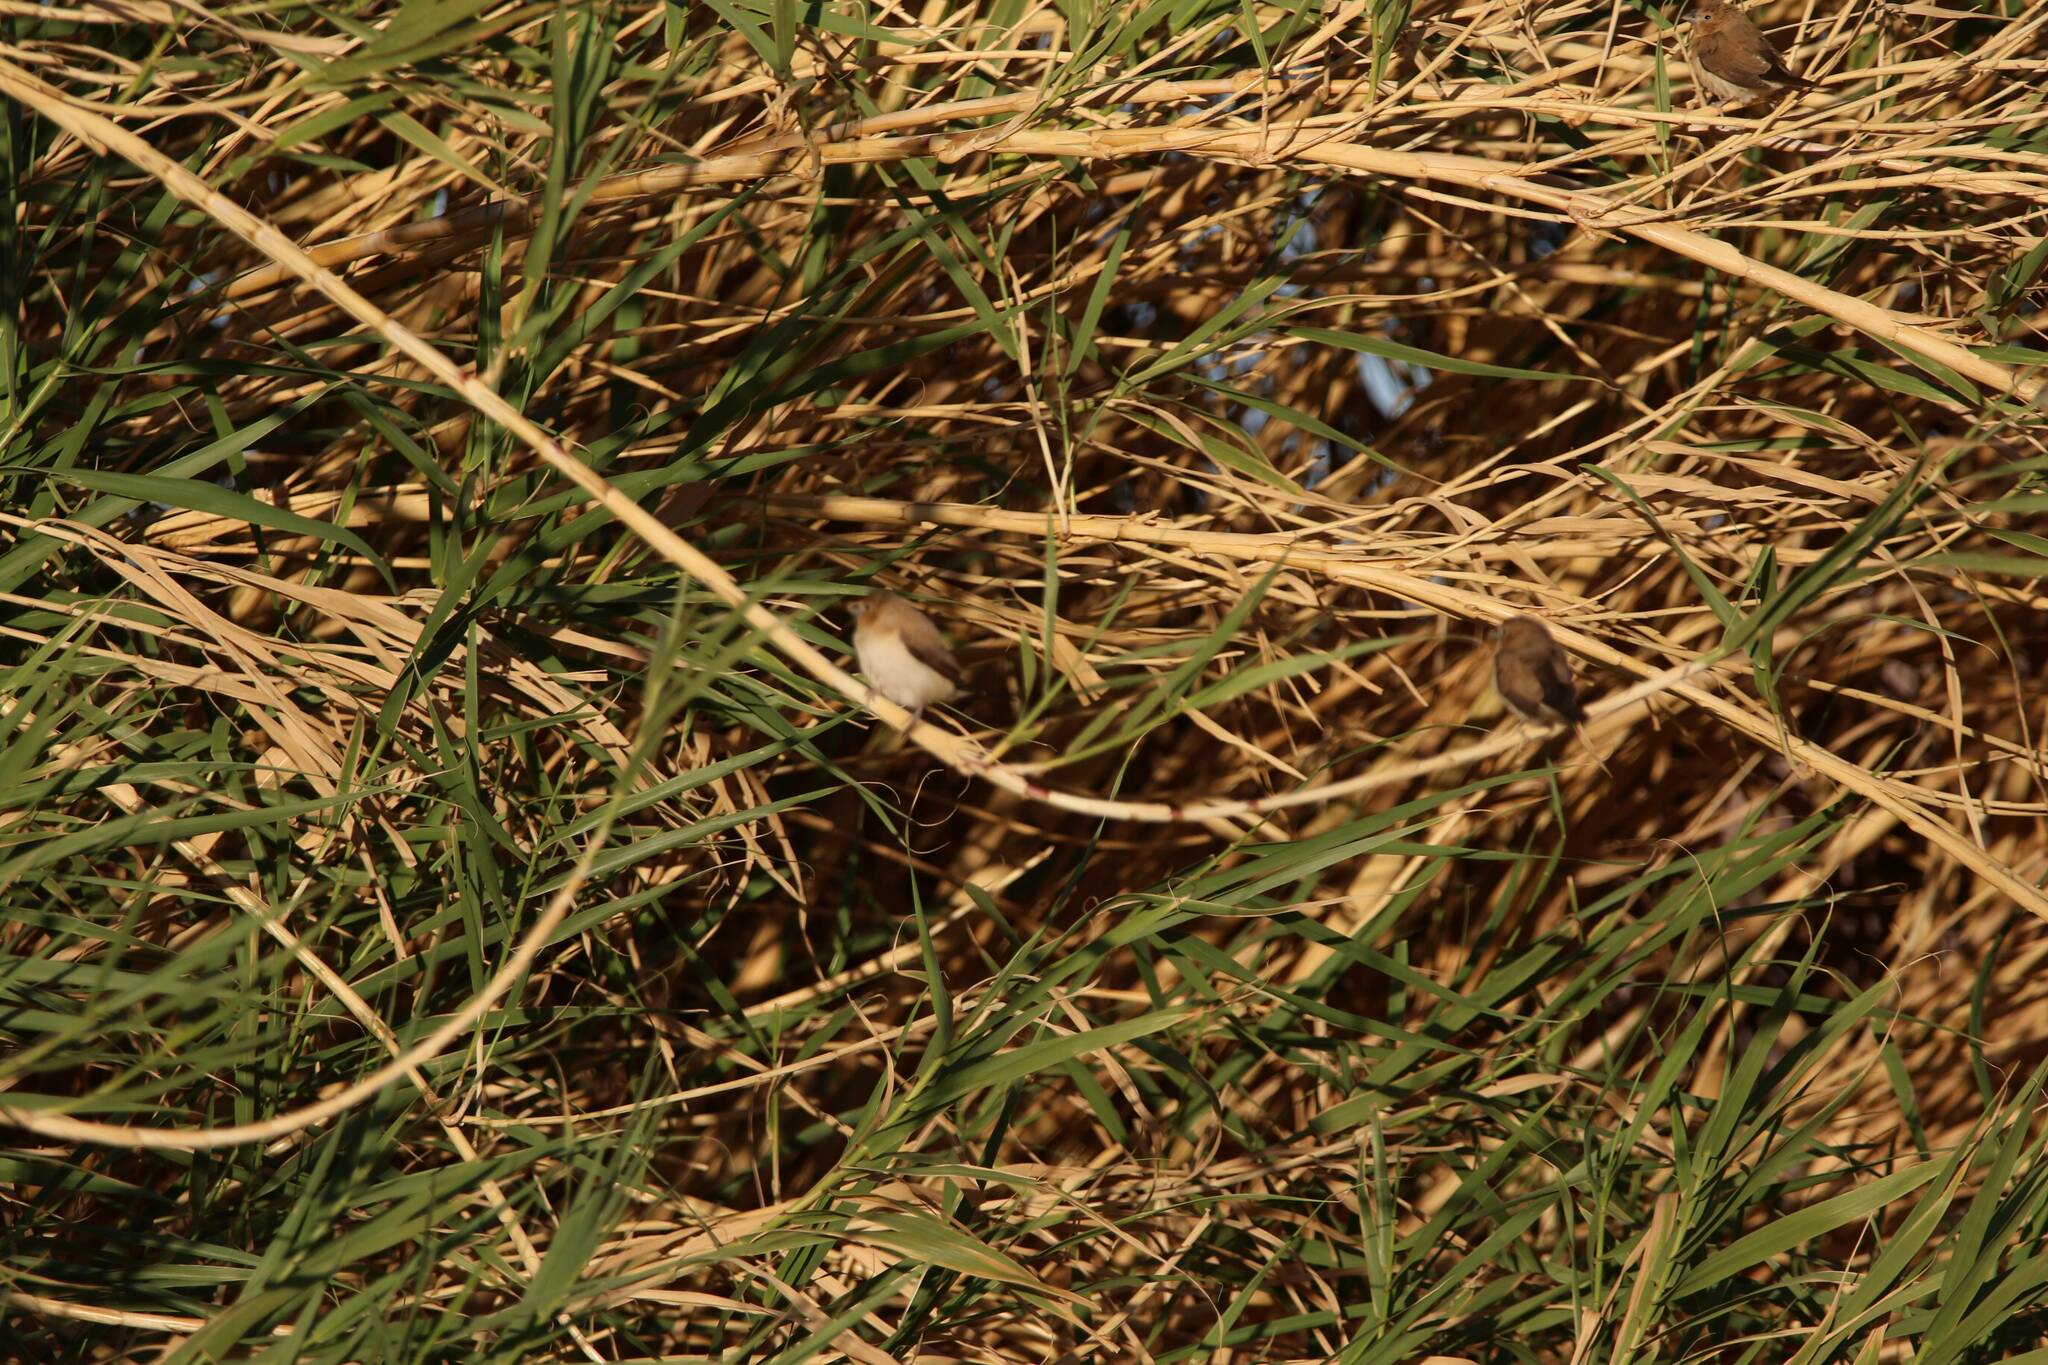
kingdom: Animalia
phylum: Chordata
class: Aves
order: Passeriformes
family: Estrildidae
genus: Euodice
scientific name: Euodice cantans
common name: African silverbill
